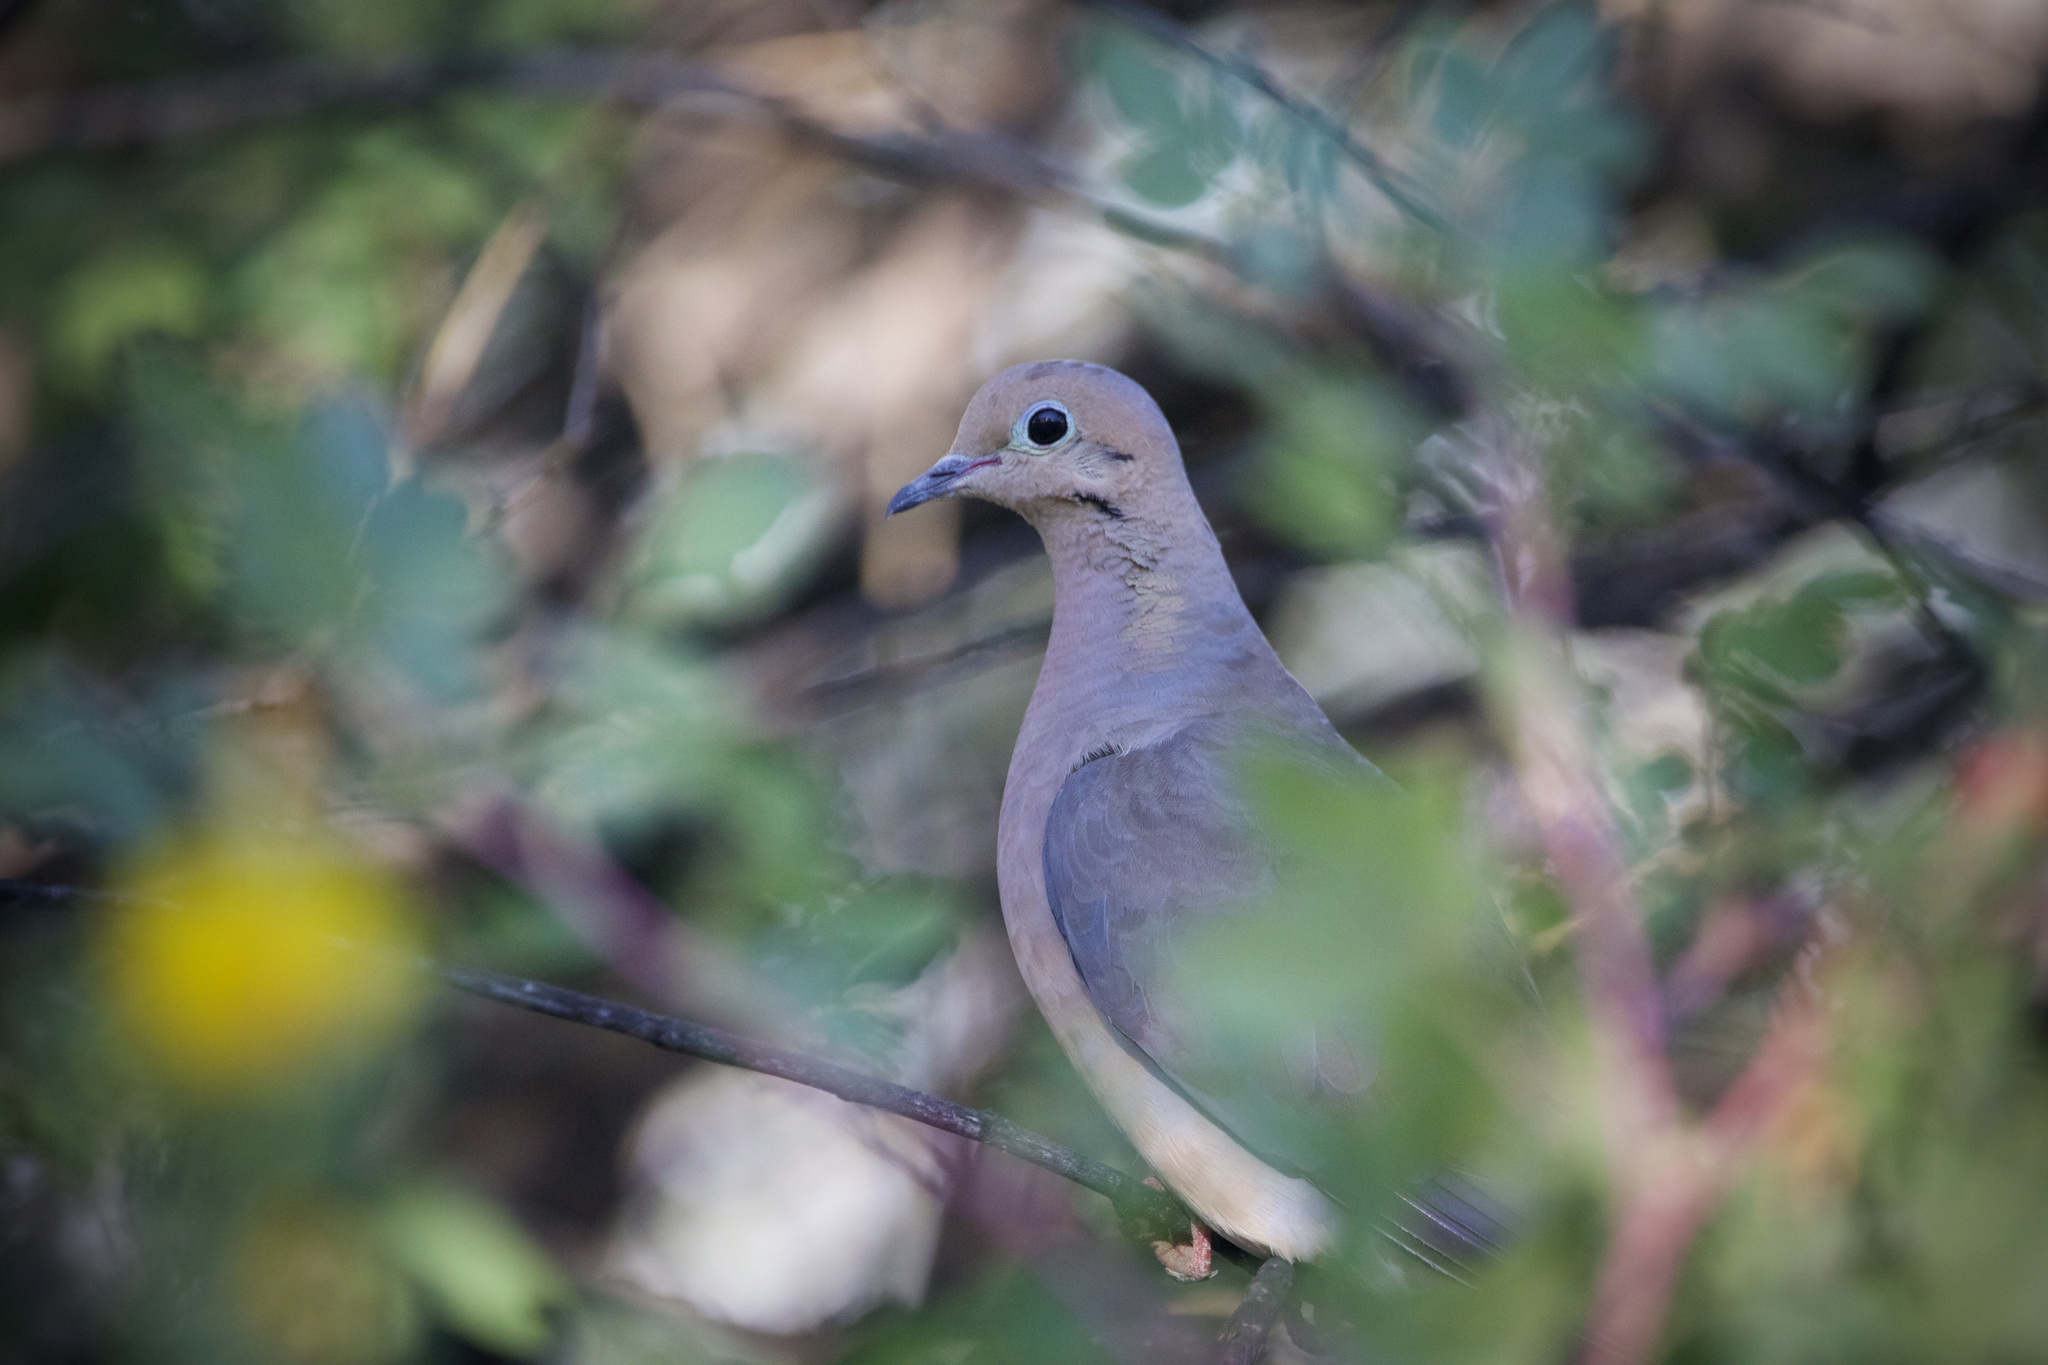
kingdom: Animalia
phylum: Chordata
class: Aves
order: Columbiformes
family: Columbidae
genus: Zenaida
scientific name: Zenaida macroura
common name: Mourning dove
